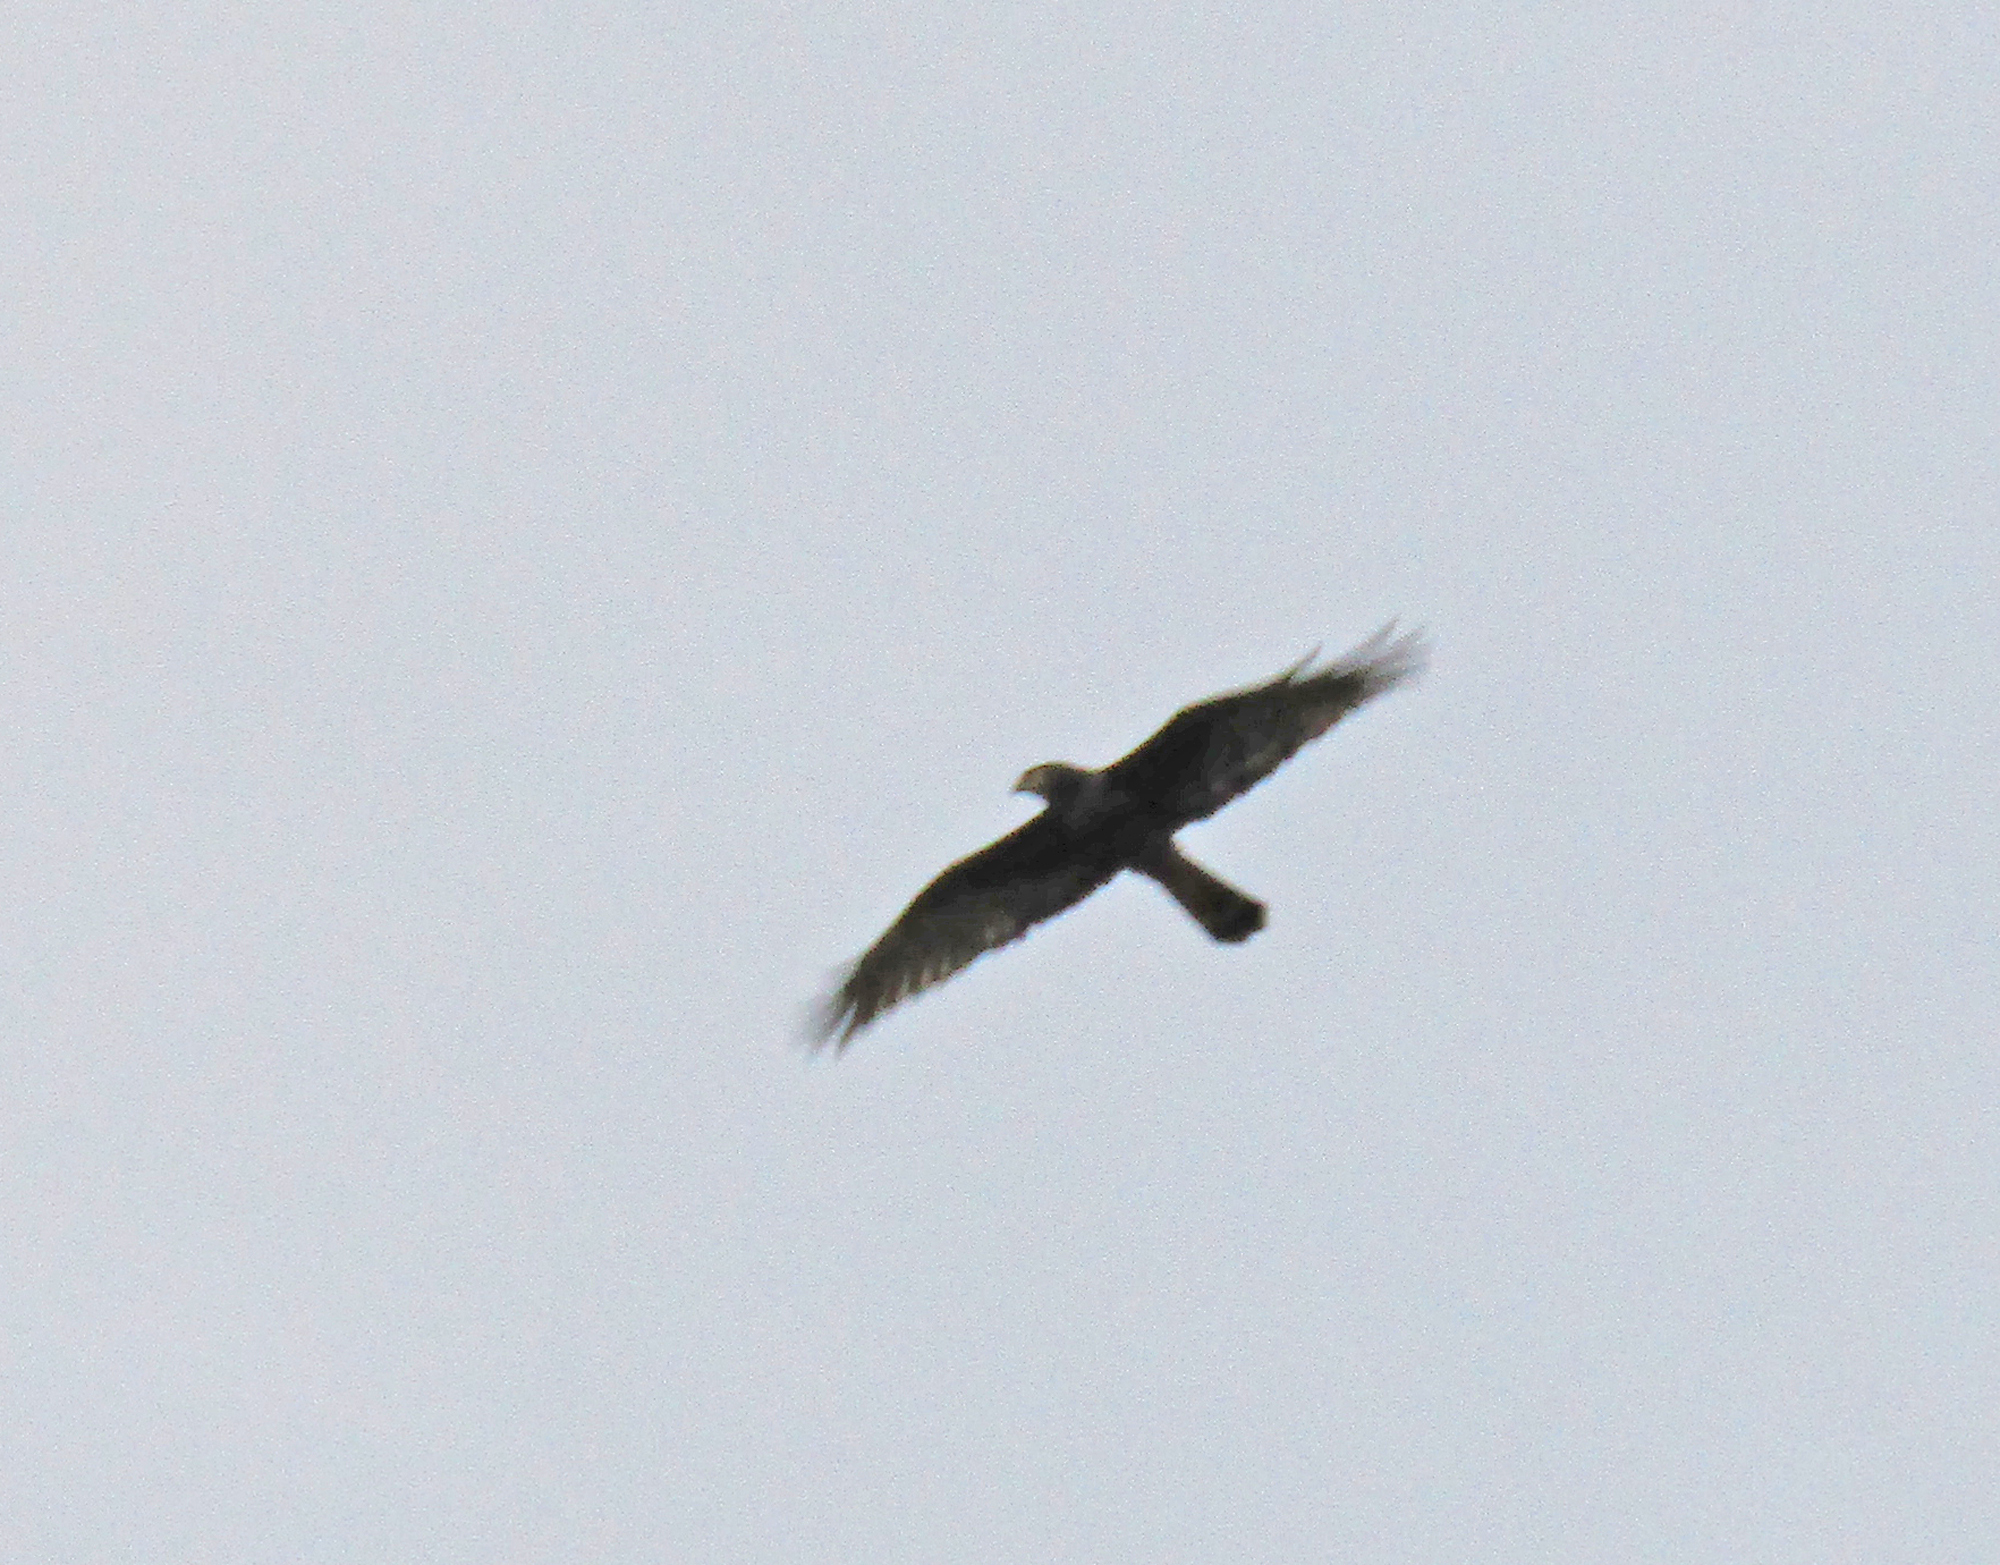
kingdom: Animalia
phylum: Chordata
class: Aves
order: Accipitriformes
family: Accipitridae
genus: Circus
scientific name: Circus buffoni
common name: Long-winged harrier
